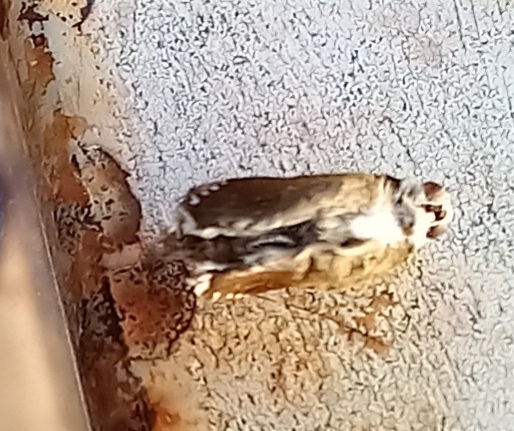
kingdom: Animalia
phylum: Arthropoda
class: Insecta
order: Lepidoptera
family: Lycaenidae
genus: Cacyreus
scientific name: Cacyreus marshalli
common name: Geranium bronze
